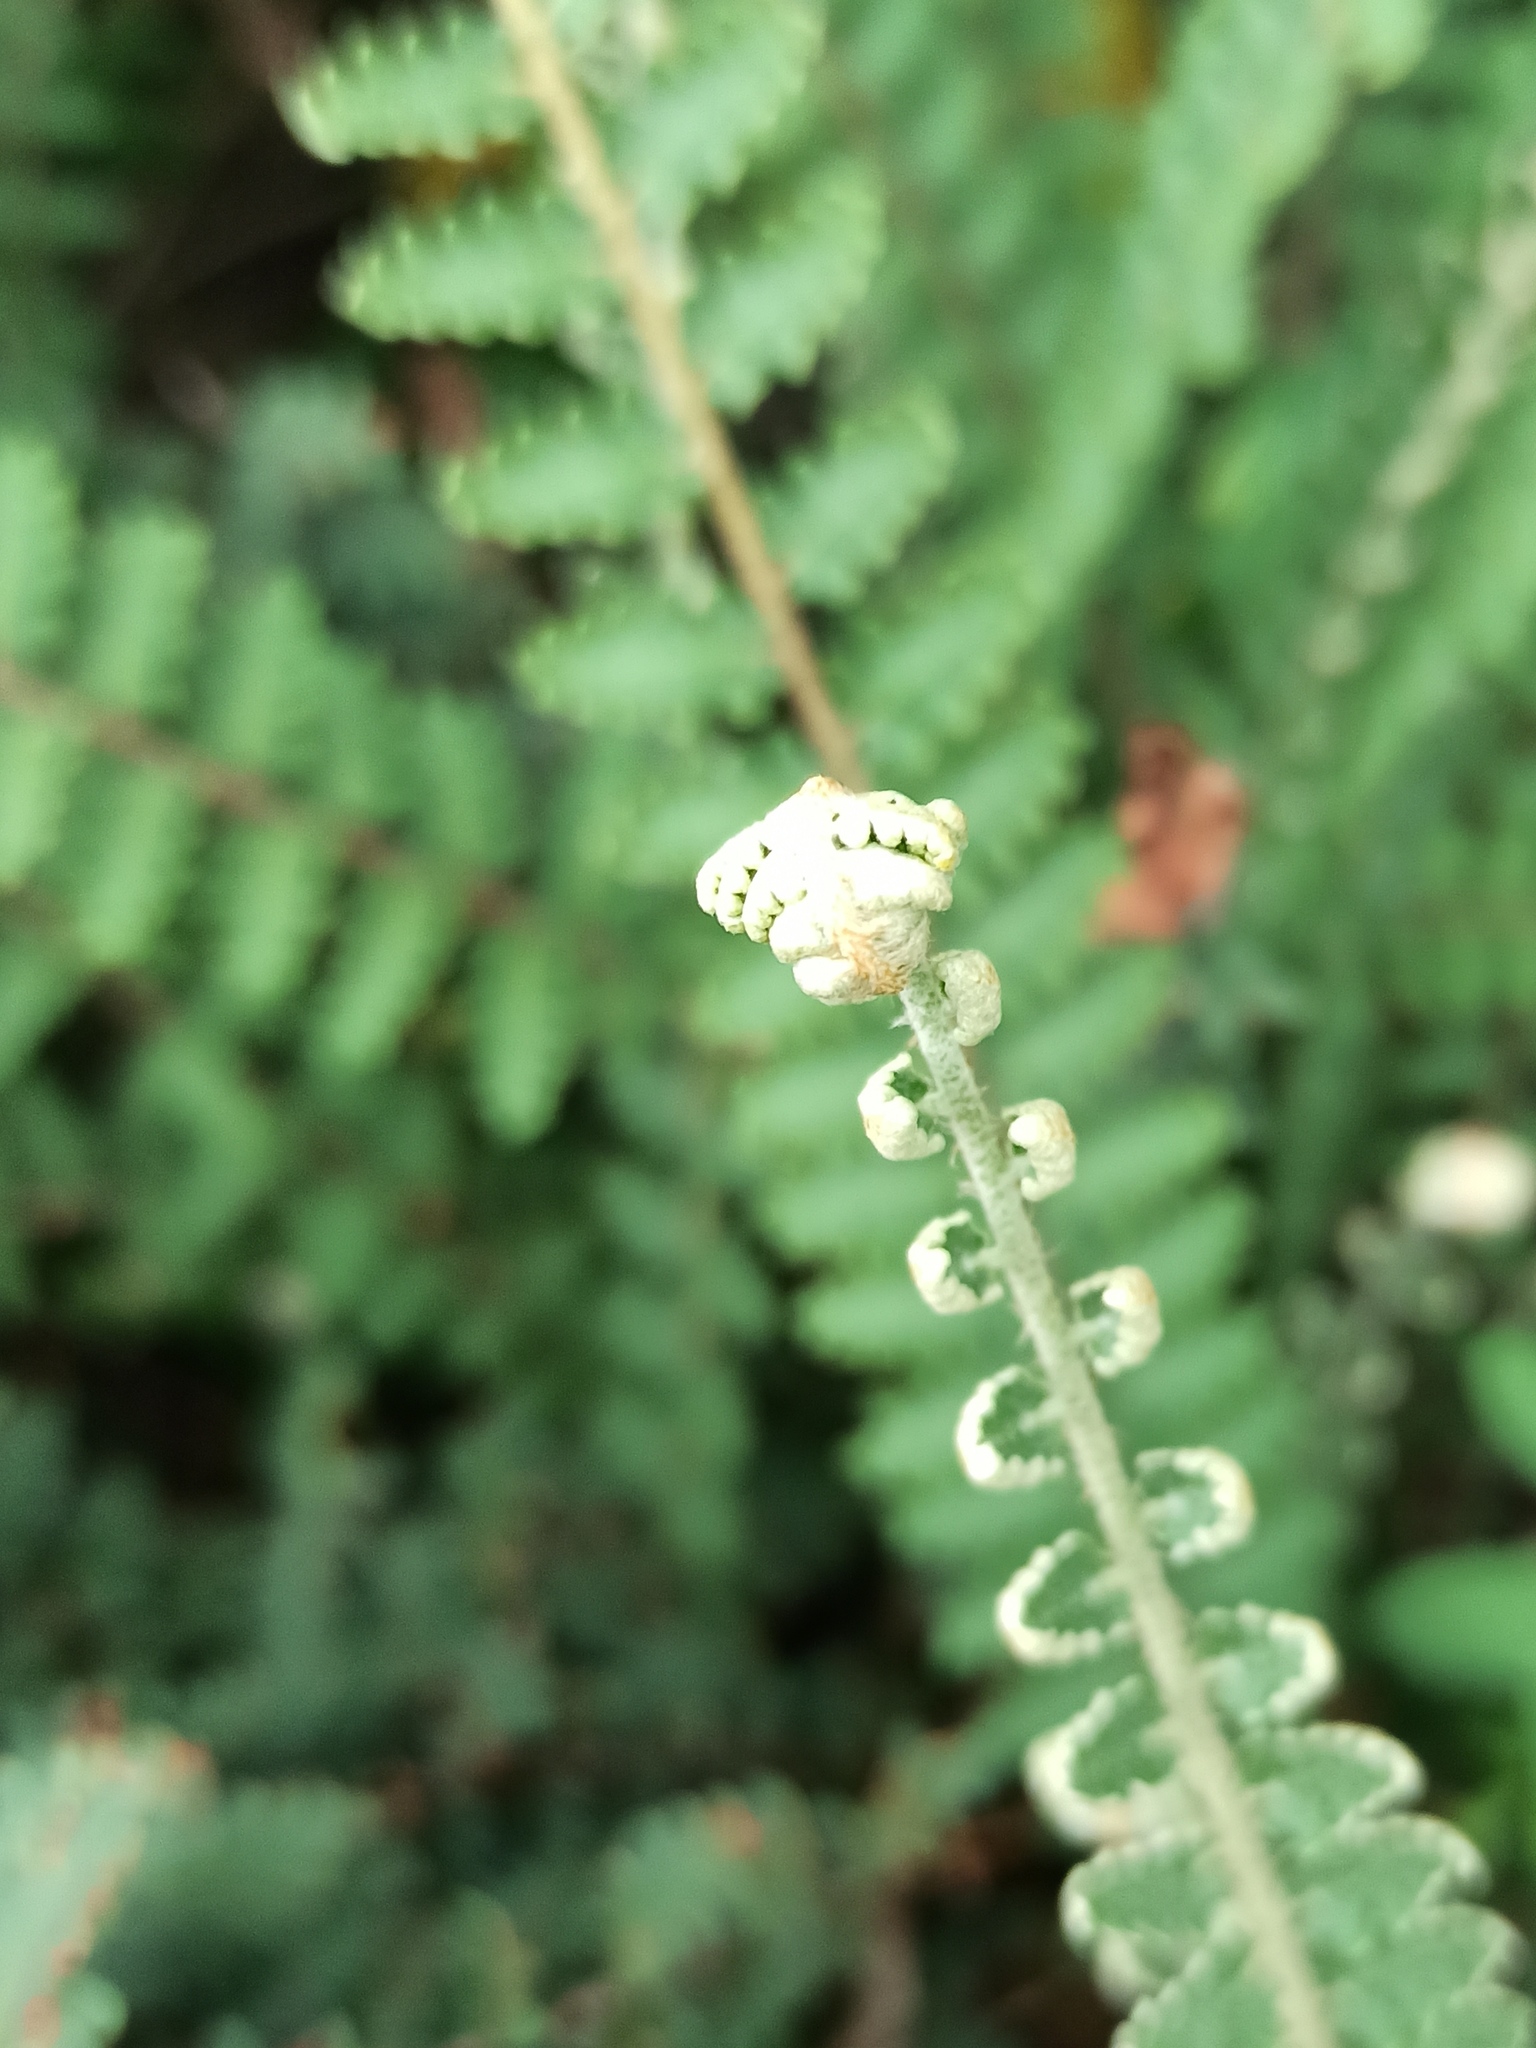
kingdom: Plantae
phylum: Tracheophyta
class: Polypodiopsida
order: Polypodiales
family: Pteridaceae
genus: Astrolepis
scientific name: Astrolepis sinuata
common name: Wavy scaly cloakfern
